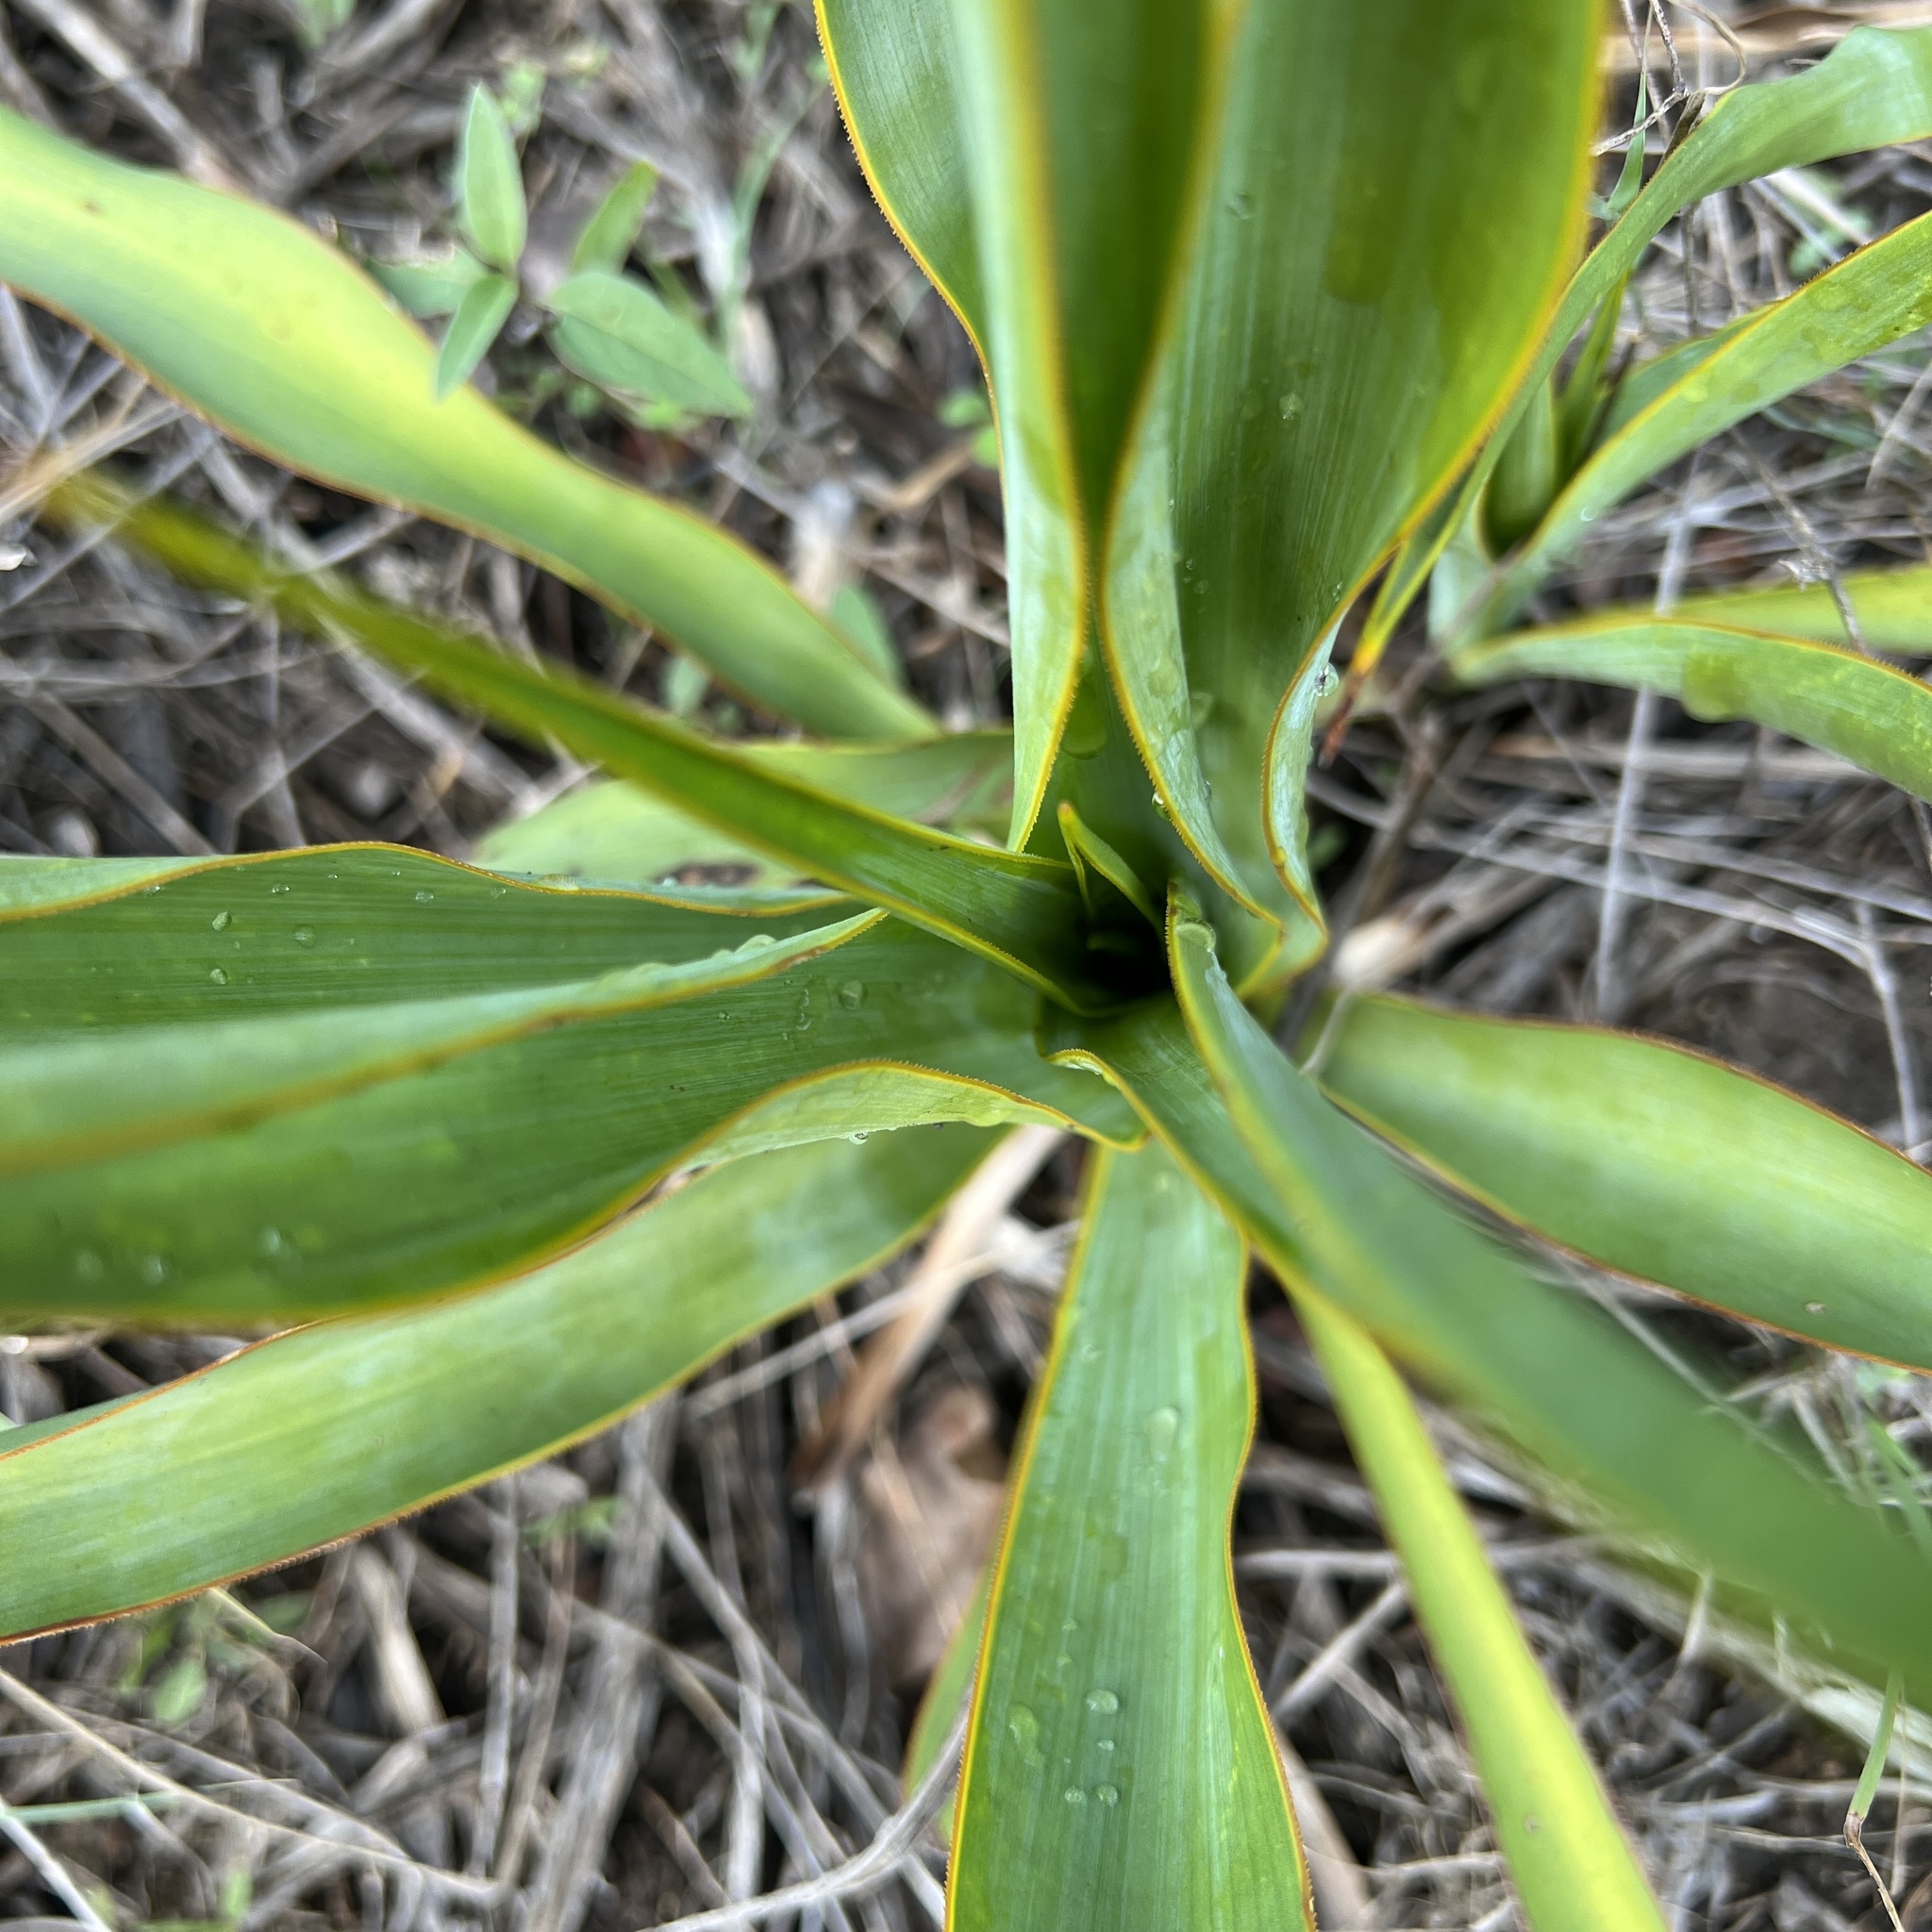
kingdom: Plantae
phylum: Tracheophyta
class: Liliopsida
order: Asparagales
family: Asparagaceae
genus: Yucca
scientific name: Yucca rupicola
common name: Twisted-leaf spanish-dagger
